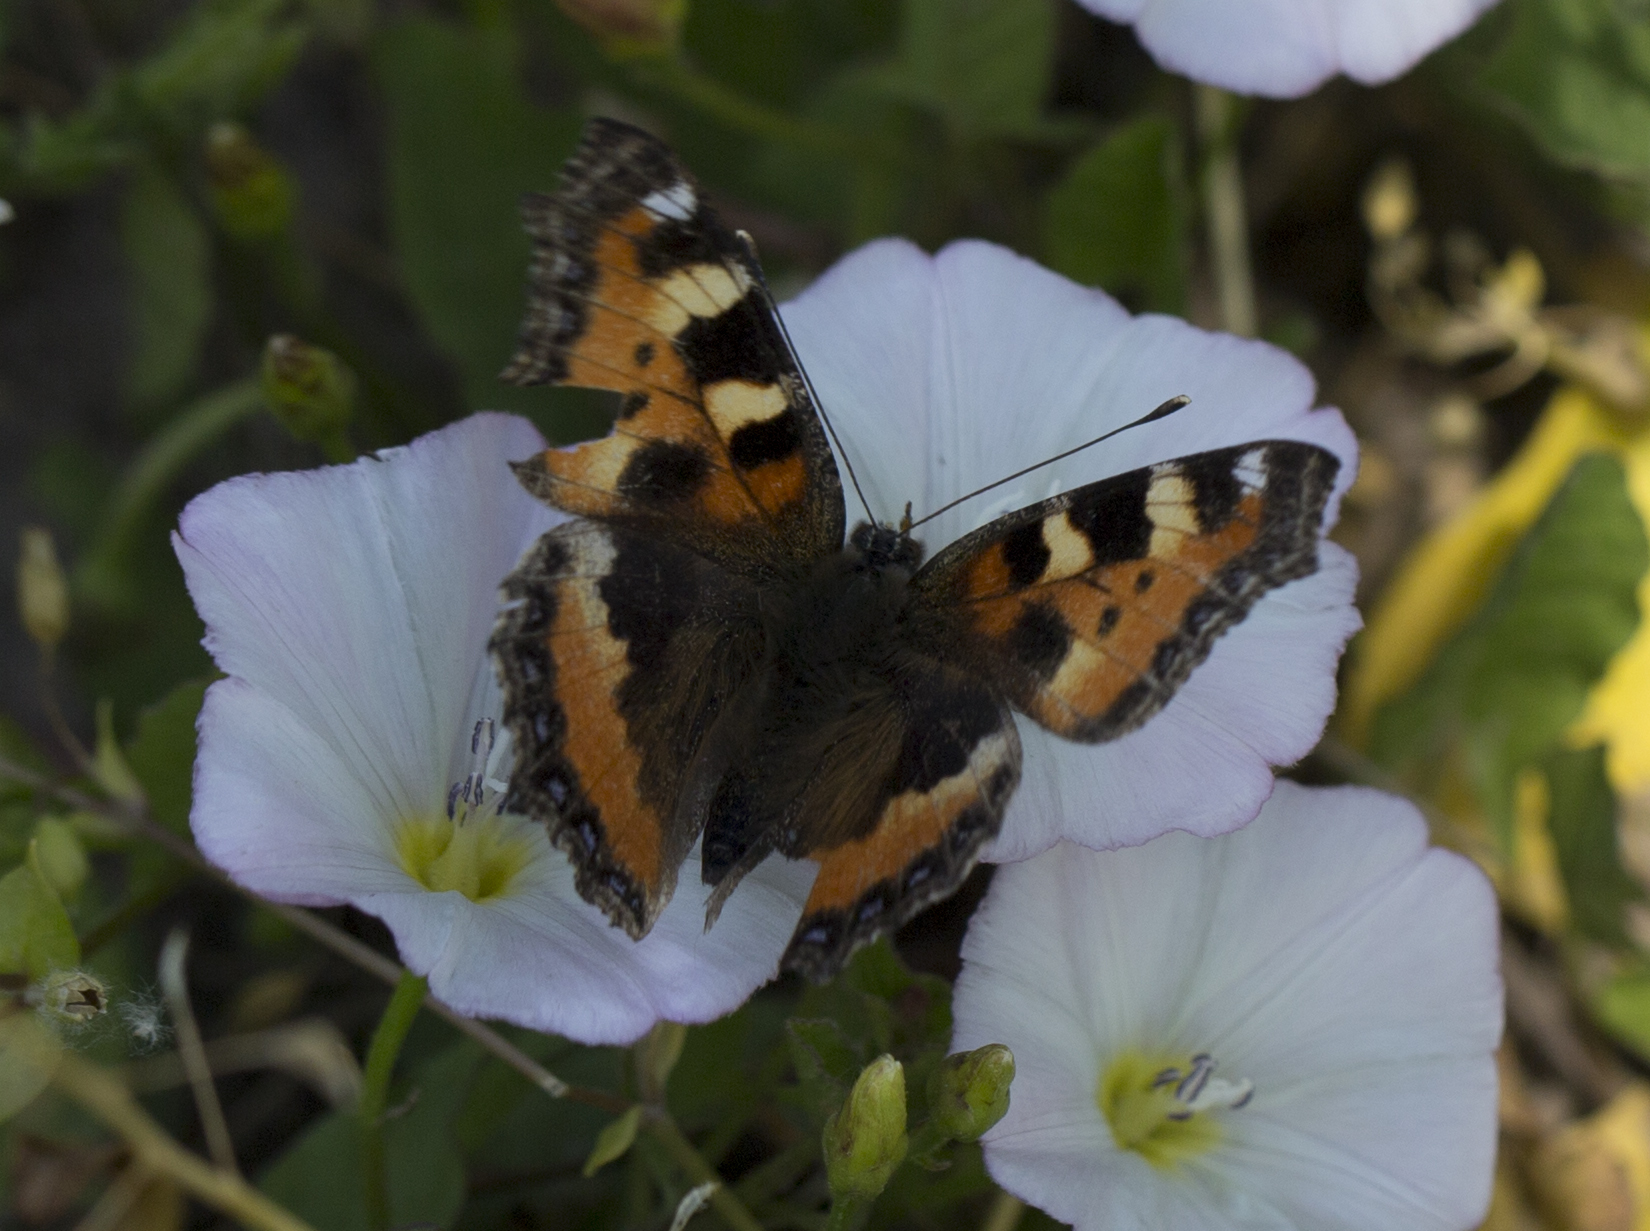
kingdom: Animalia
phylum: Arthropoda
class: Insecta
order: Lepidoptera
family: Nymphalidae
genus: Aglais
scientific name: Aglais urticae
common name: Small tortoiseshell
